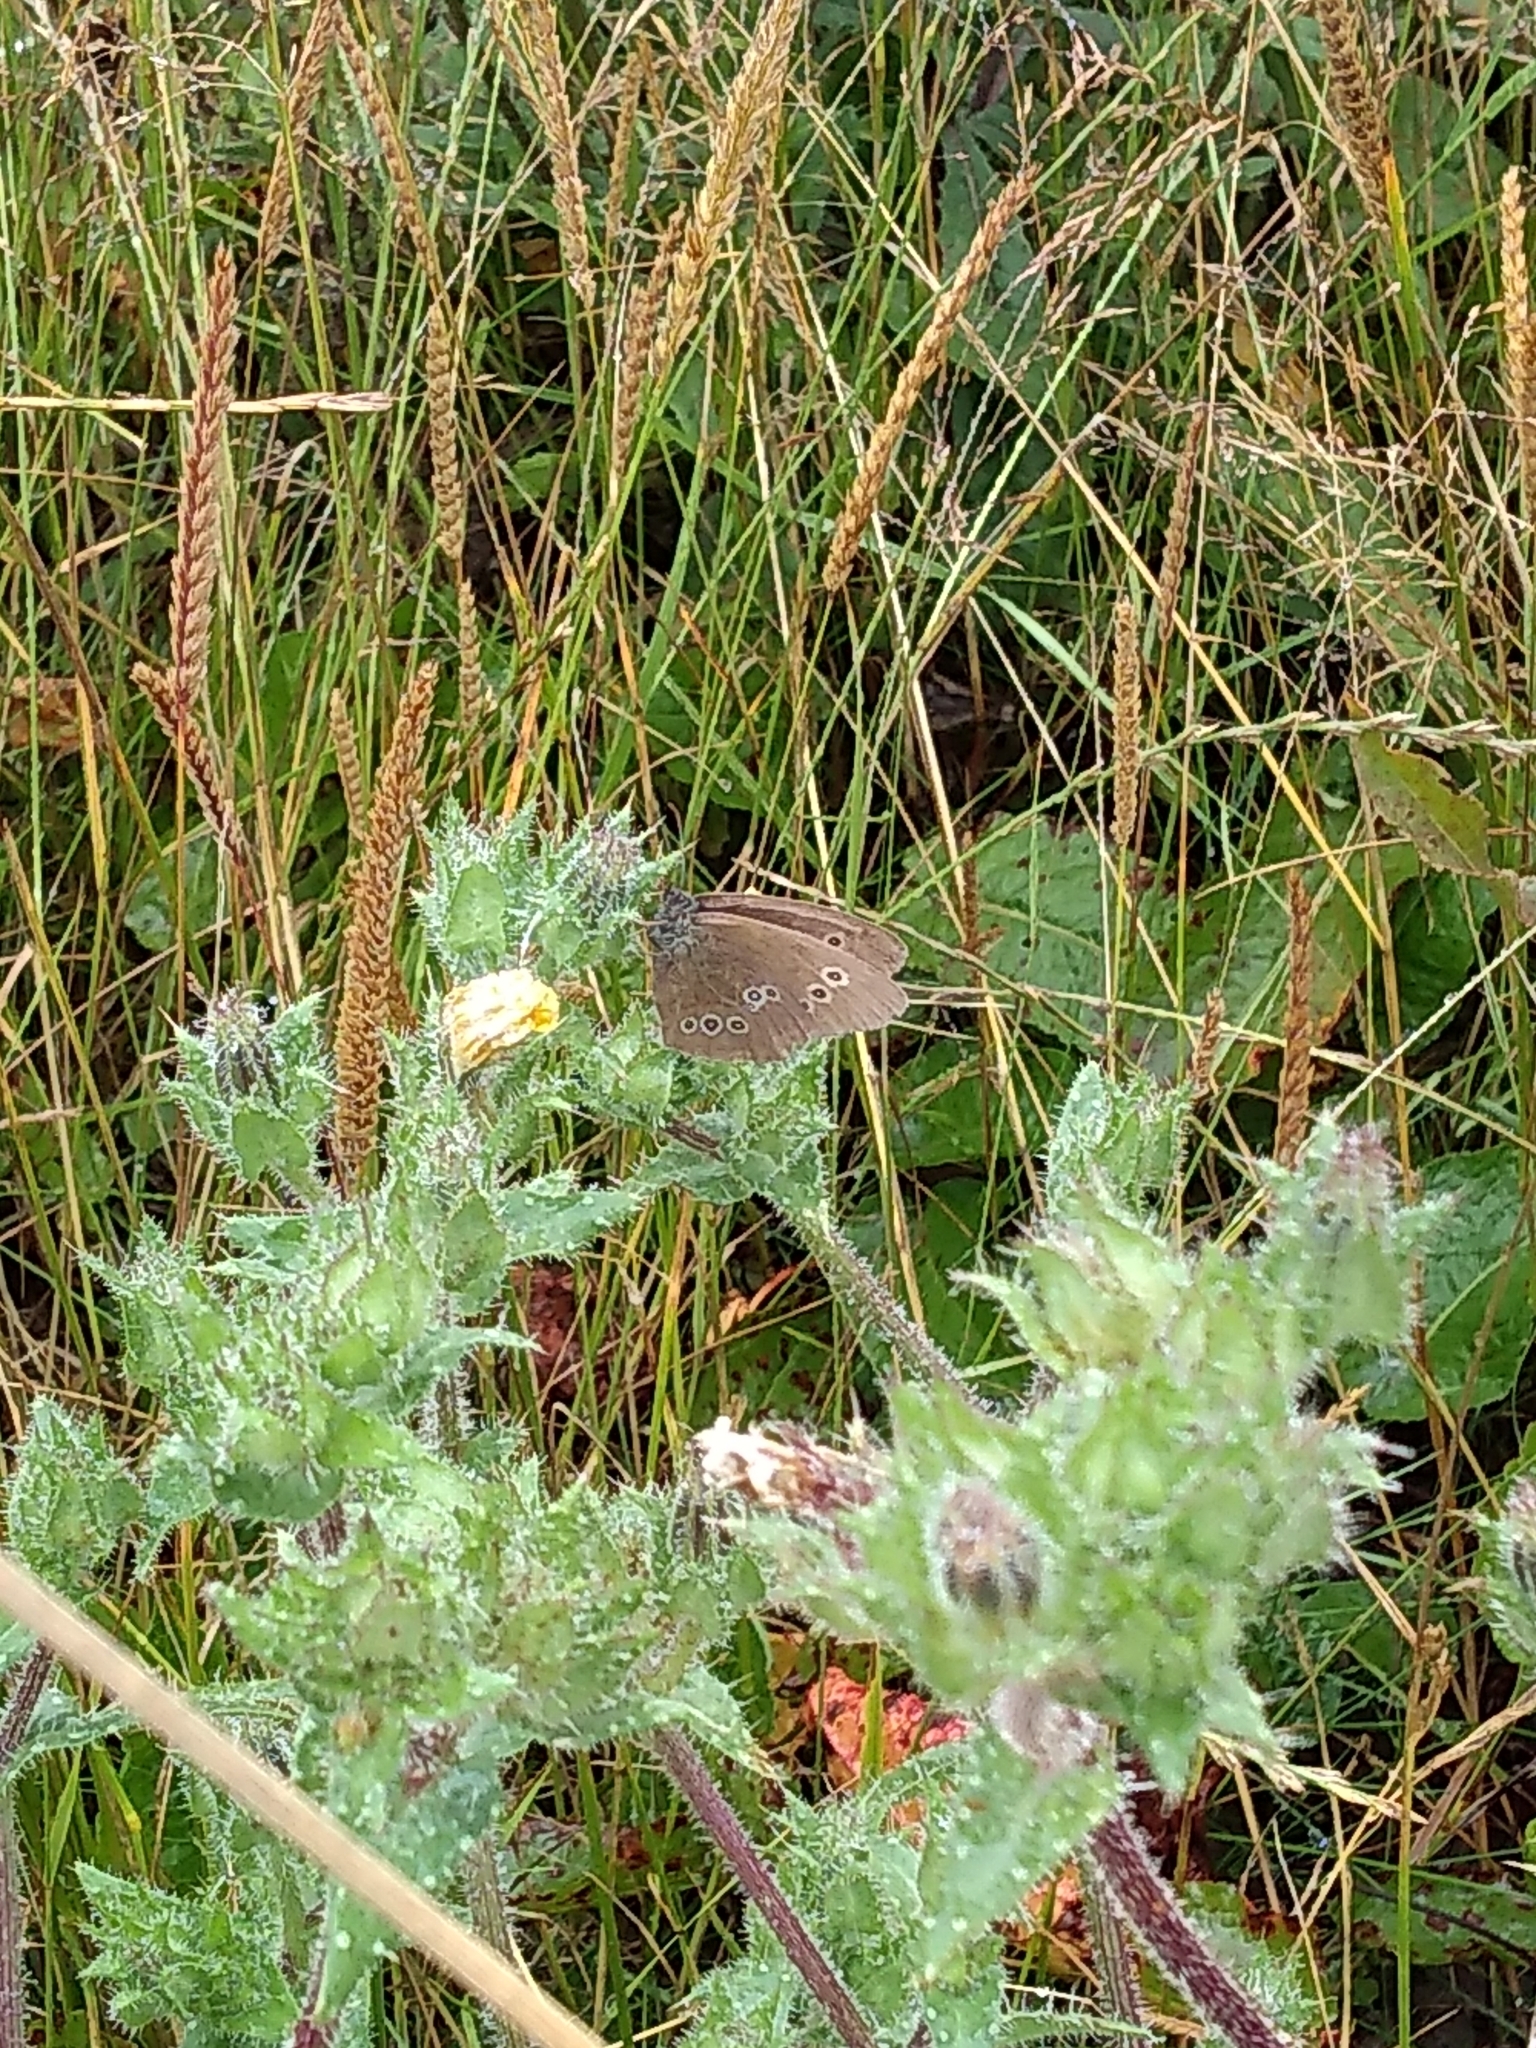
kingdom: Animalia
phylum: Arthropoda
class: Insecta
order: Lepidoptera
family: Nymphalidae
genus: Aphantopus
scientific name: Aphantopus hyperantus
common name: Ringlet
